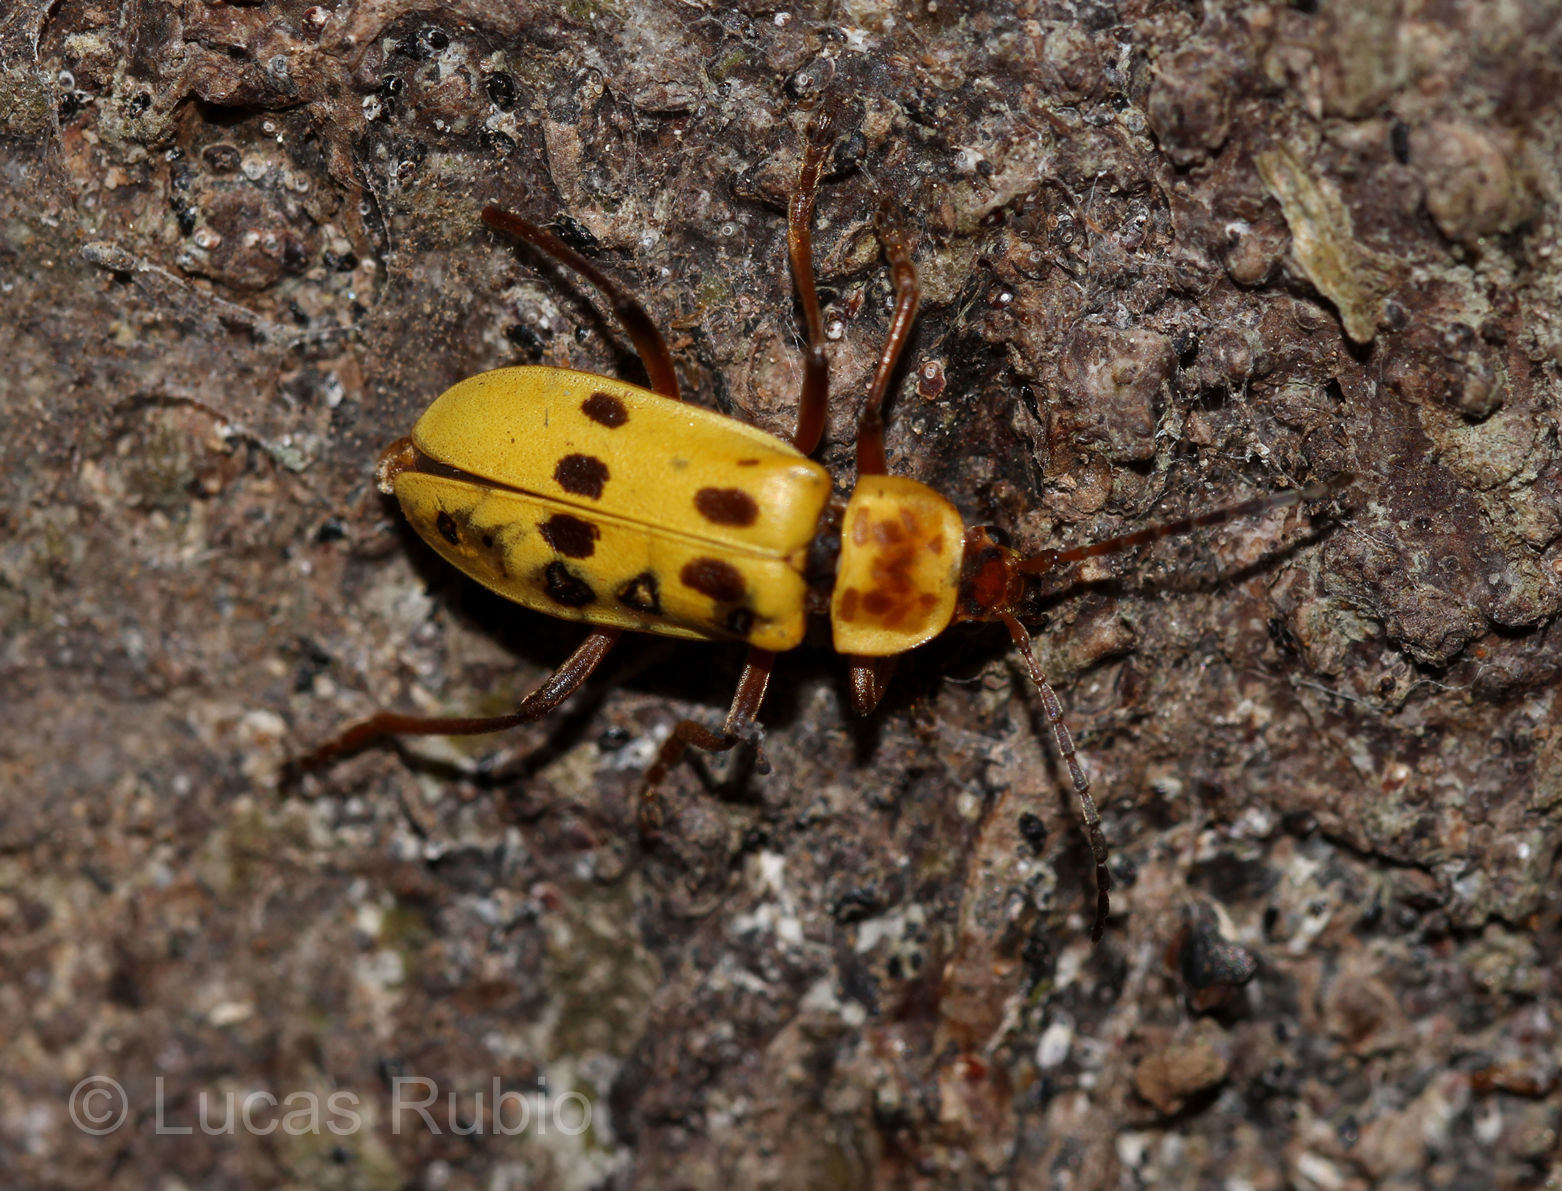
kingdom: Animalia
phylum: Arthropoda
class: Insecta
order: Coleoptera
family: Cantharidae
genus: Chauliognathus
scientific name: Chauliognathus
